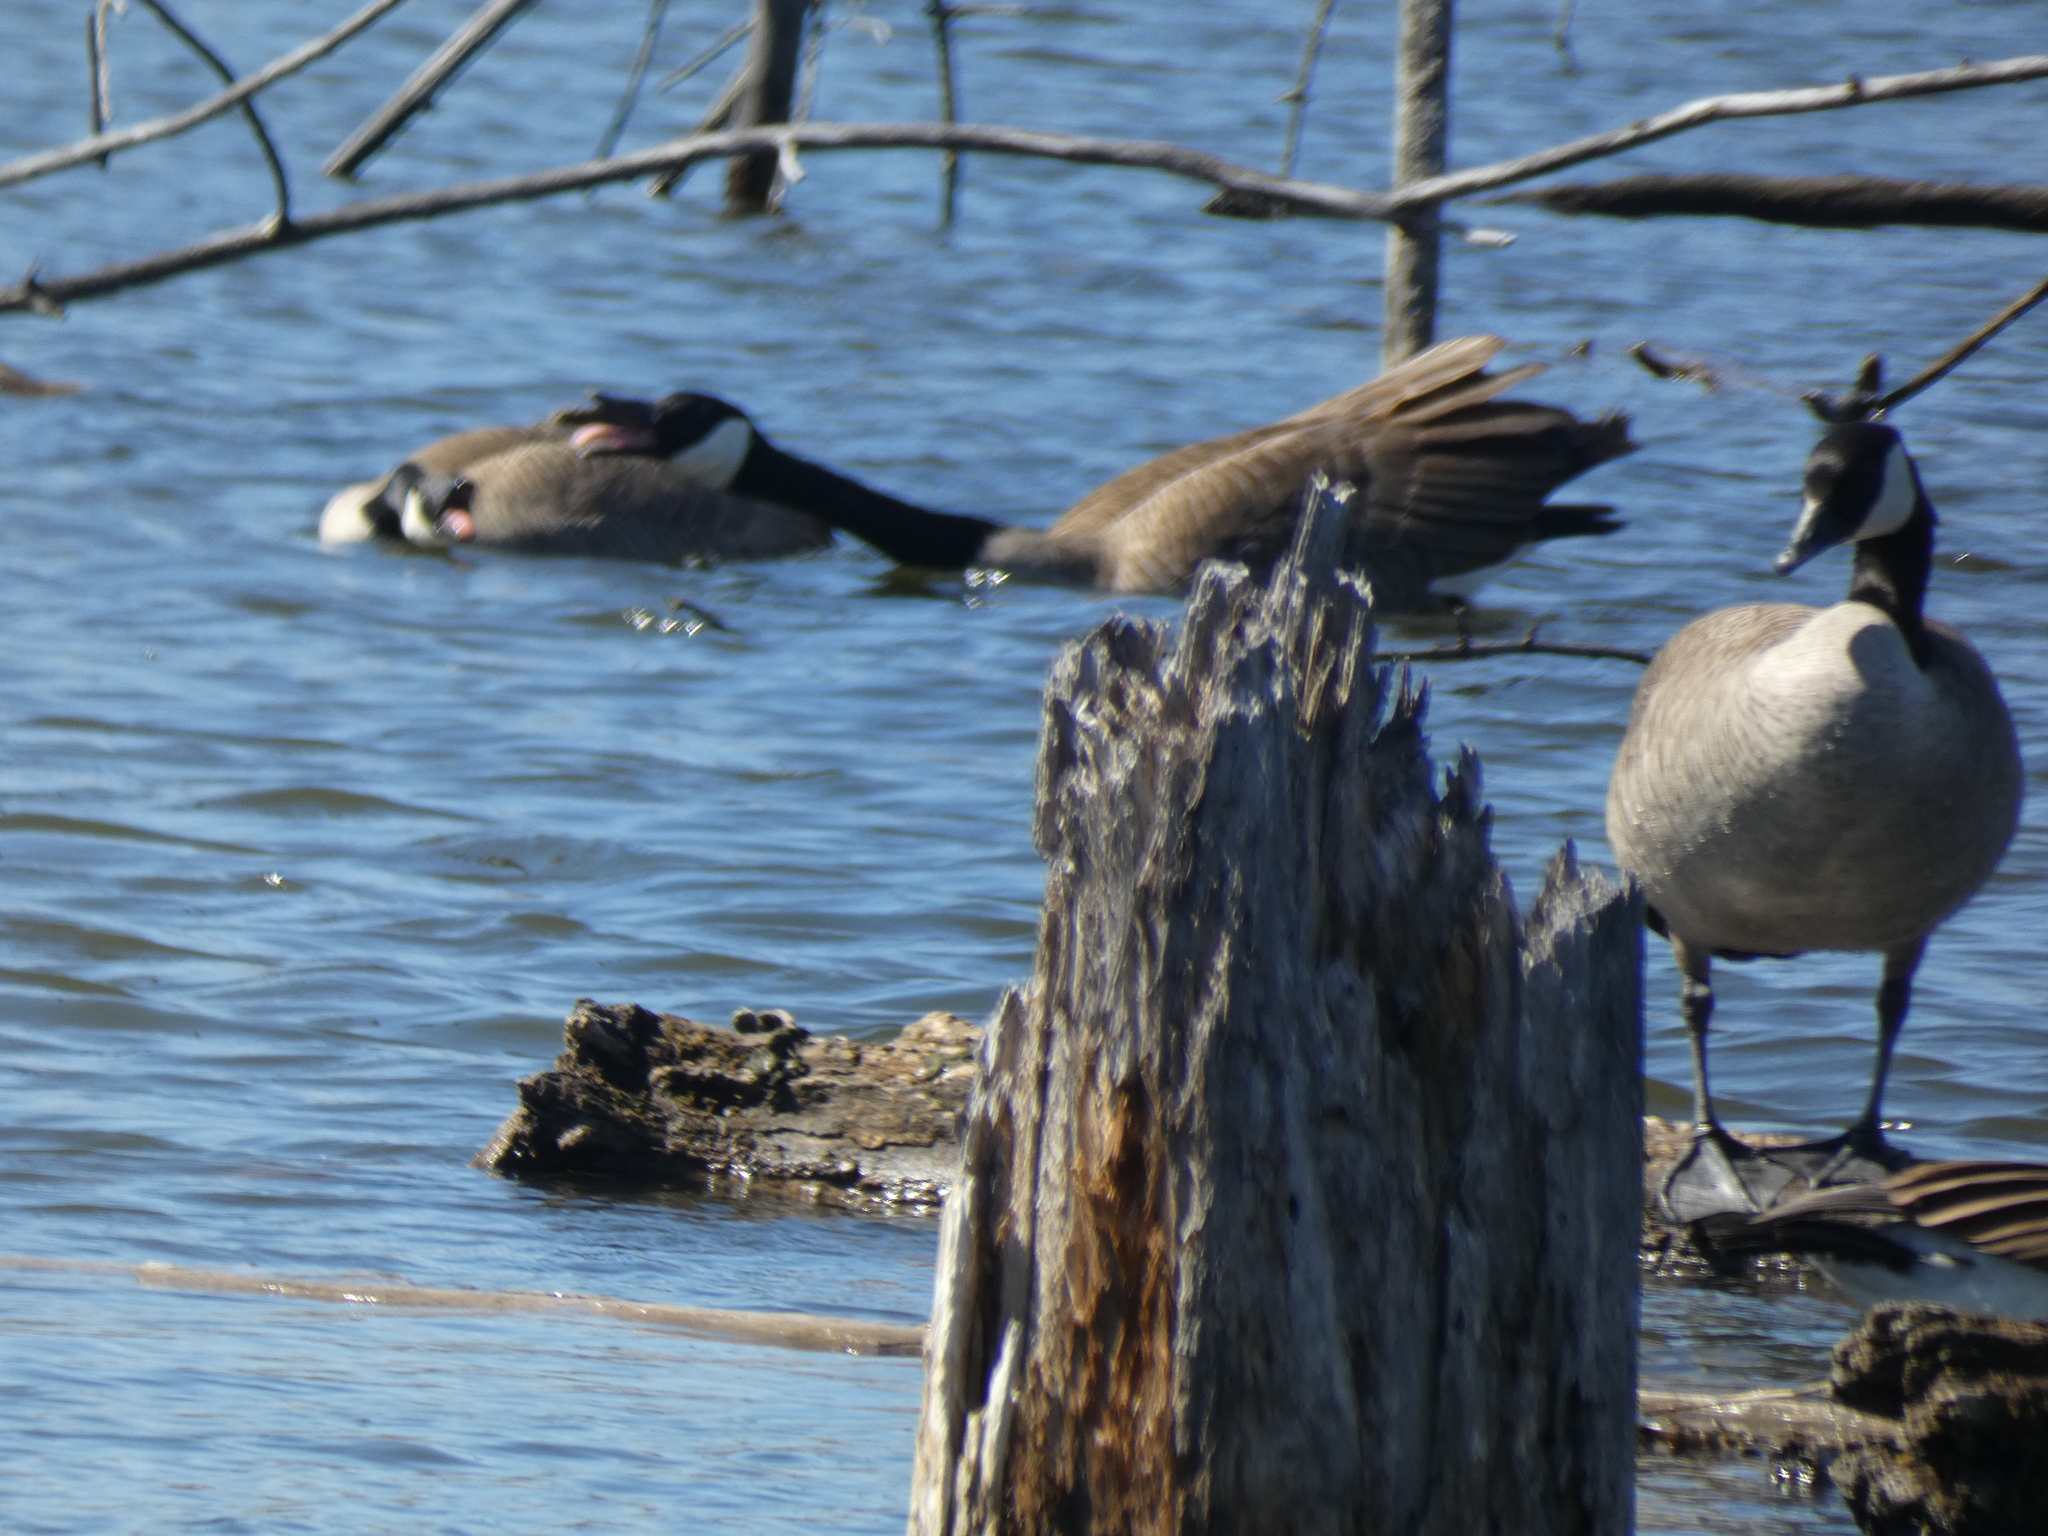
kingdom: Animalia
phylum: Chordata
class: Aves
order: Anseriformes
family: Anatidae
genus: Branta
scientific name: Branta canadensis
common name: Canada goose
